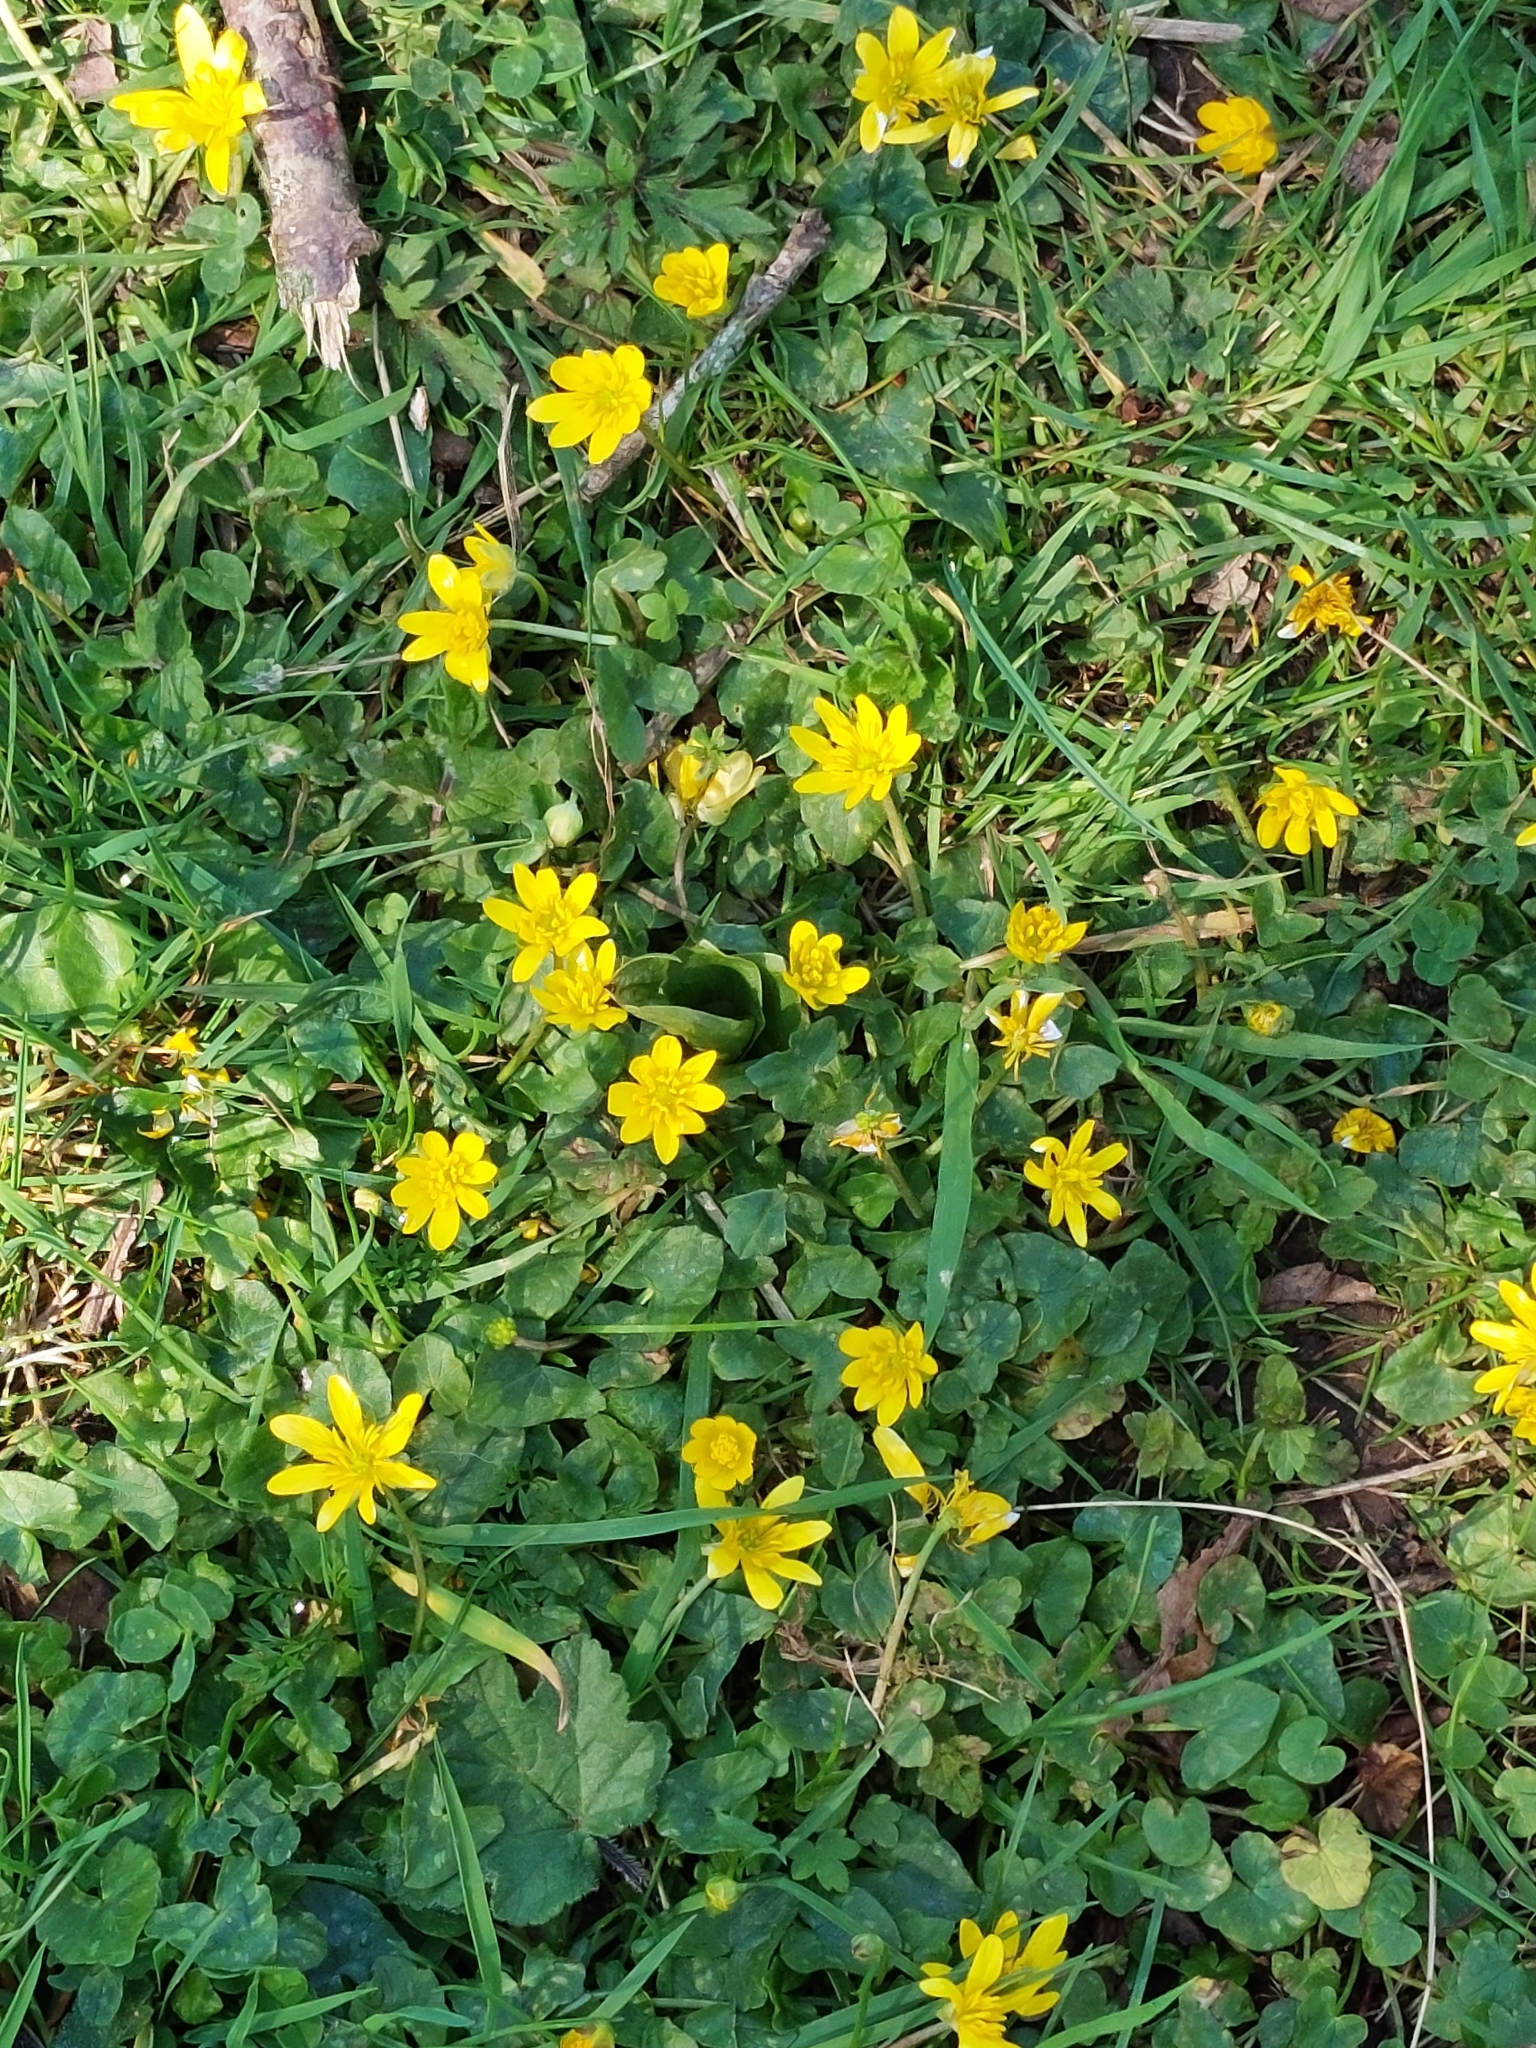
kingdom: Plantae
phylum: Tracheophyta
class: Magnoliopsida
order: Ranunculales
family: Ranunculaceae
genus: Ficaria
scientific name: Ficaria verna
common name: Lesser celandine
